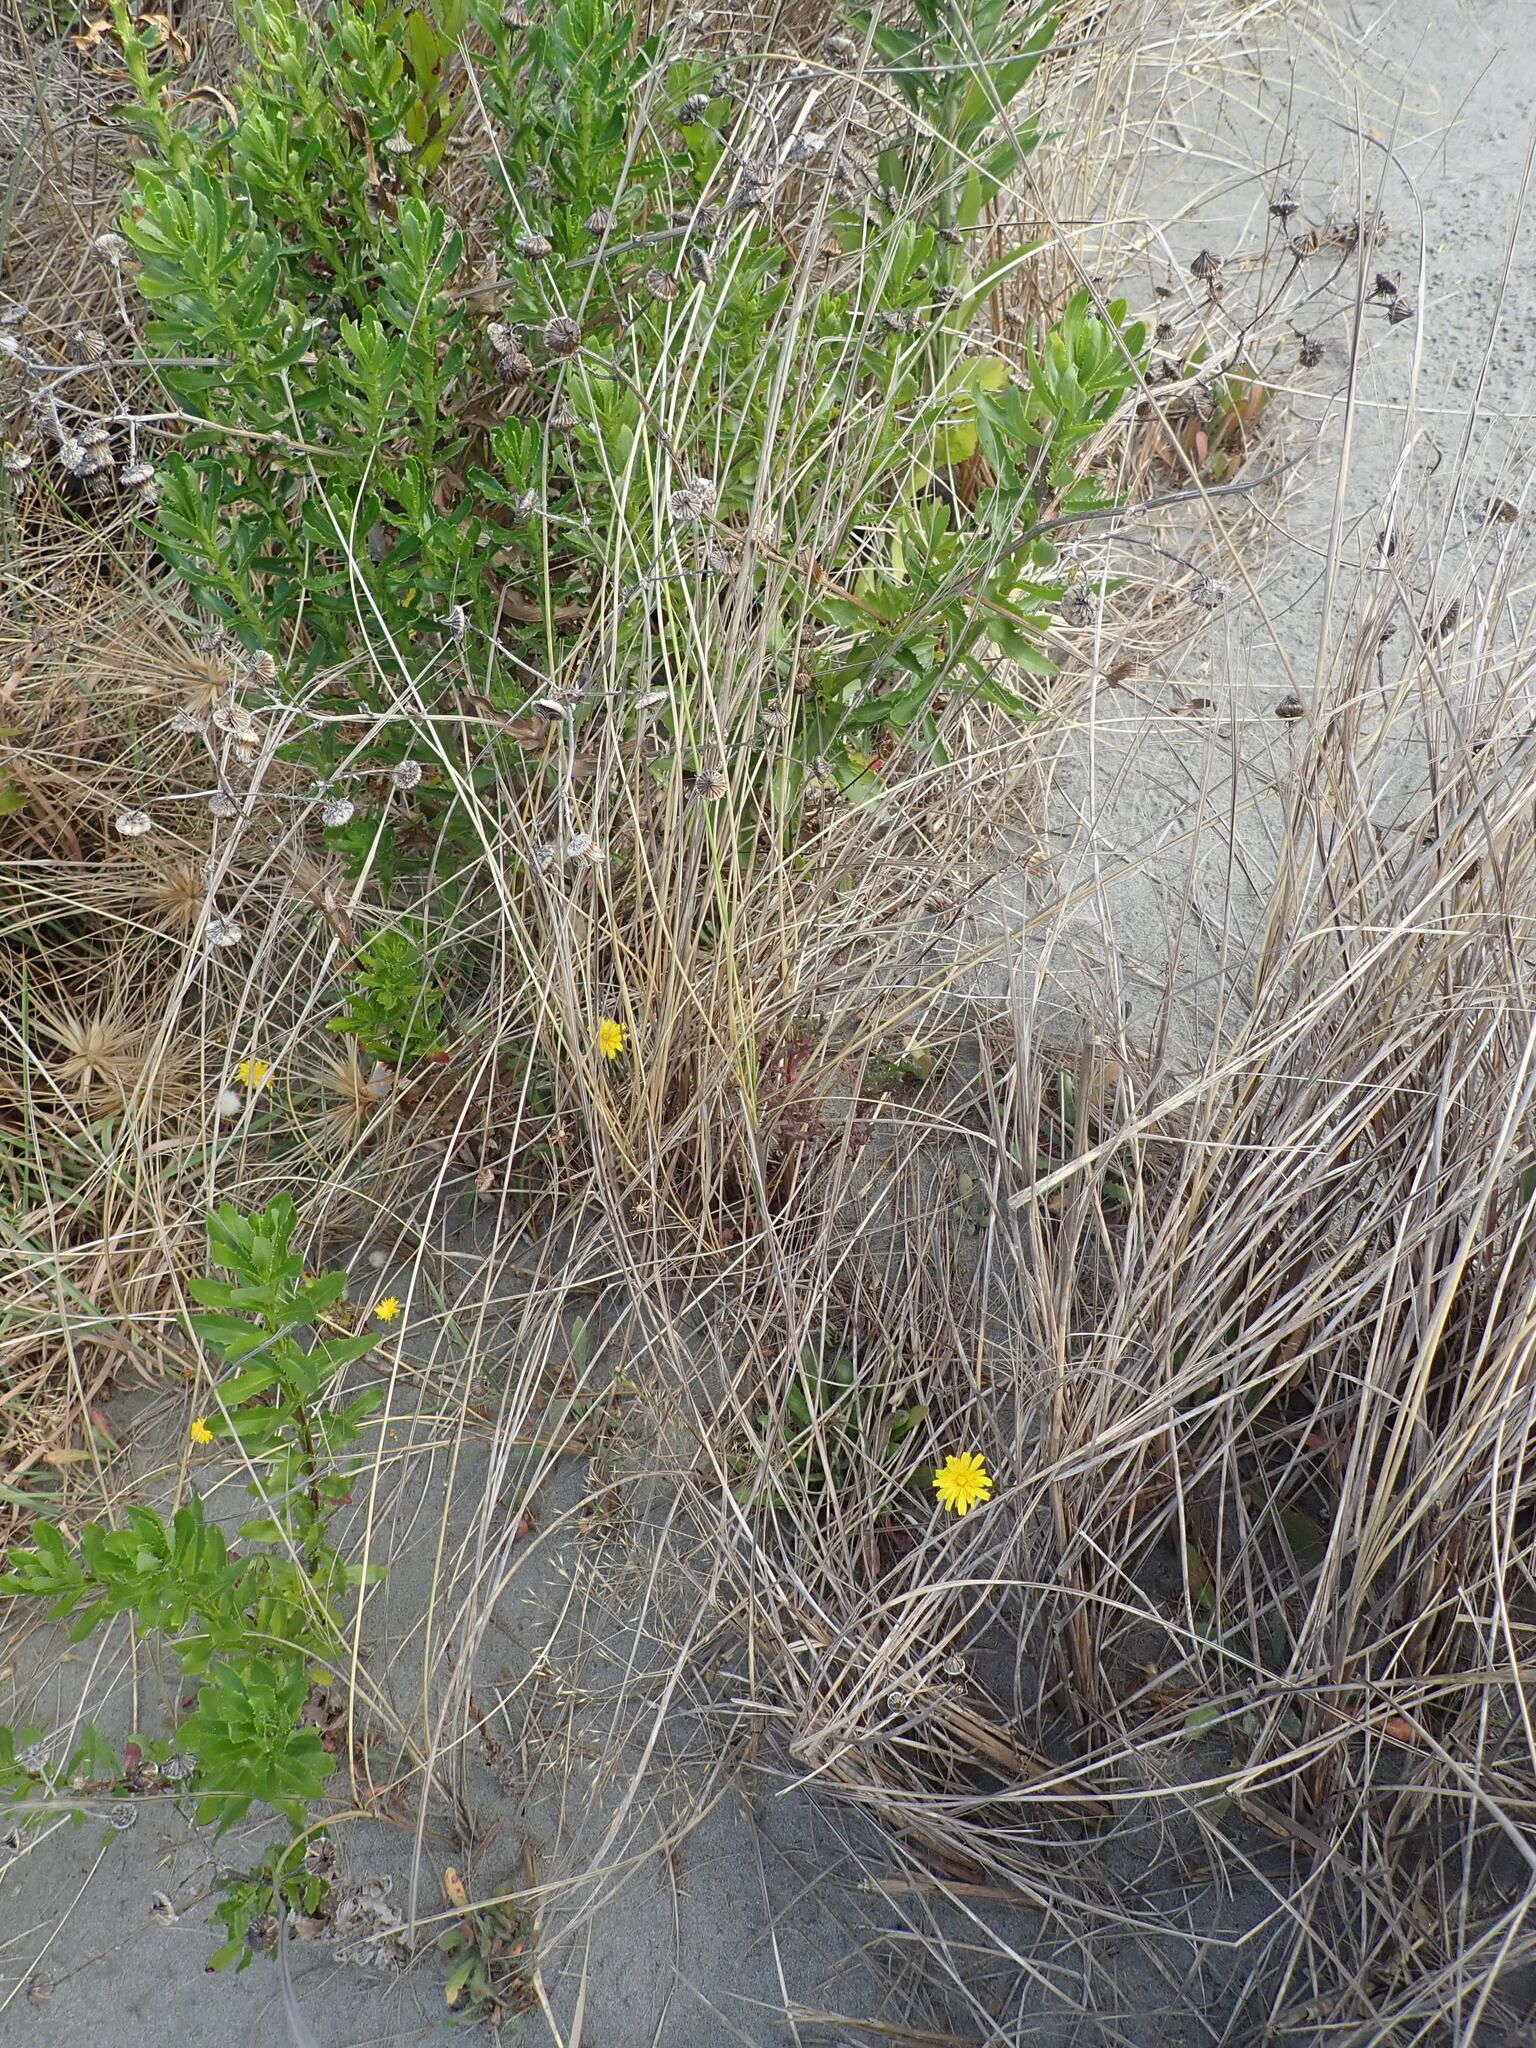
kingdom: Plantae
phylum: Tracheophyta
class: Magnoliopsida
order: Asterales
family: Asteraceae
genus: Senecio
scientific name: Senecio glastifolius
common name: Woad-leaved ragwort
